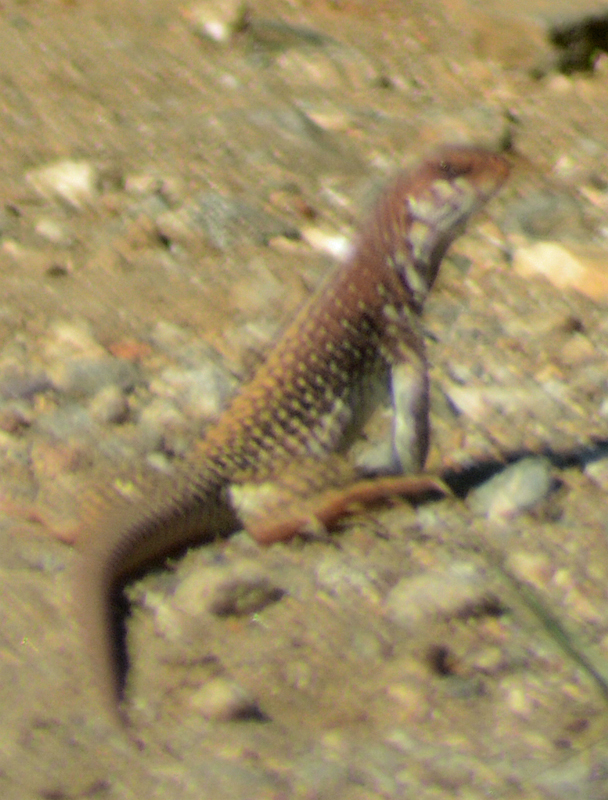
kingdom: Animalia
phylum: Chordata
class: Squamata
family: Iguanidae
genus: Dipsosaurus
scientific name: Dipsosaurus dorsalis
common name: Desert iguana
